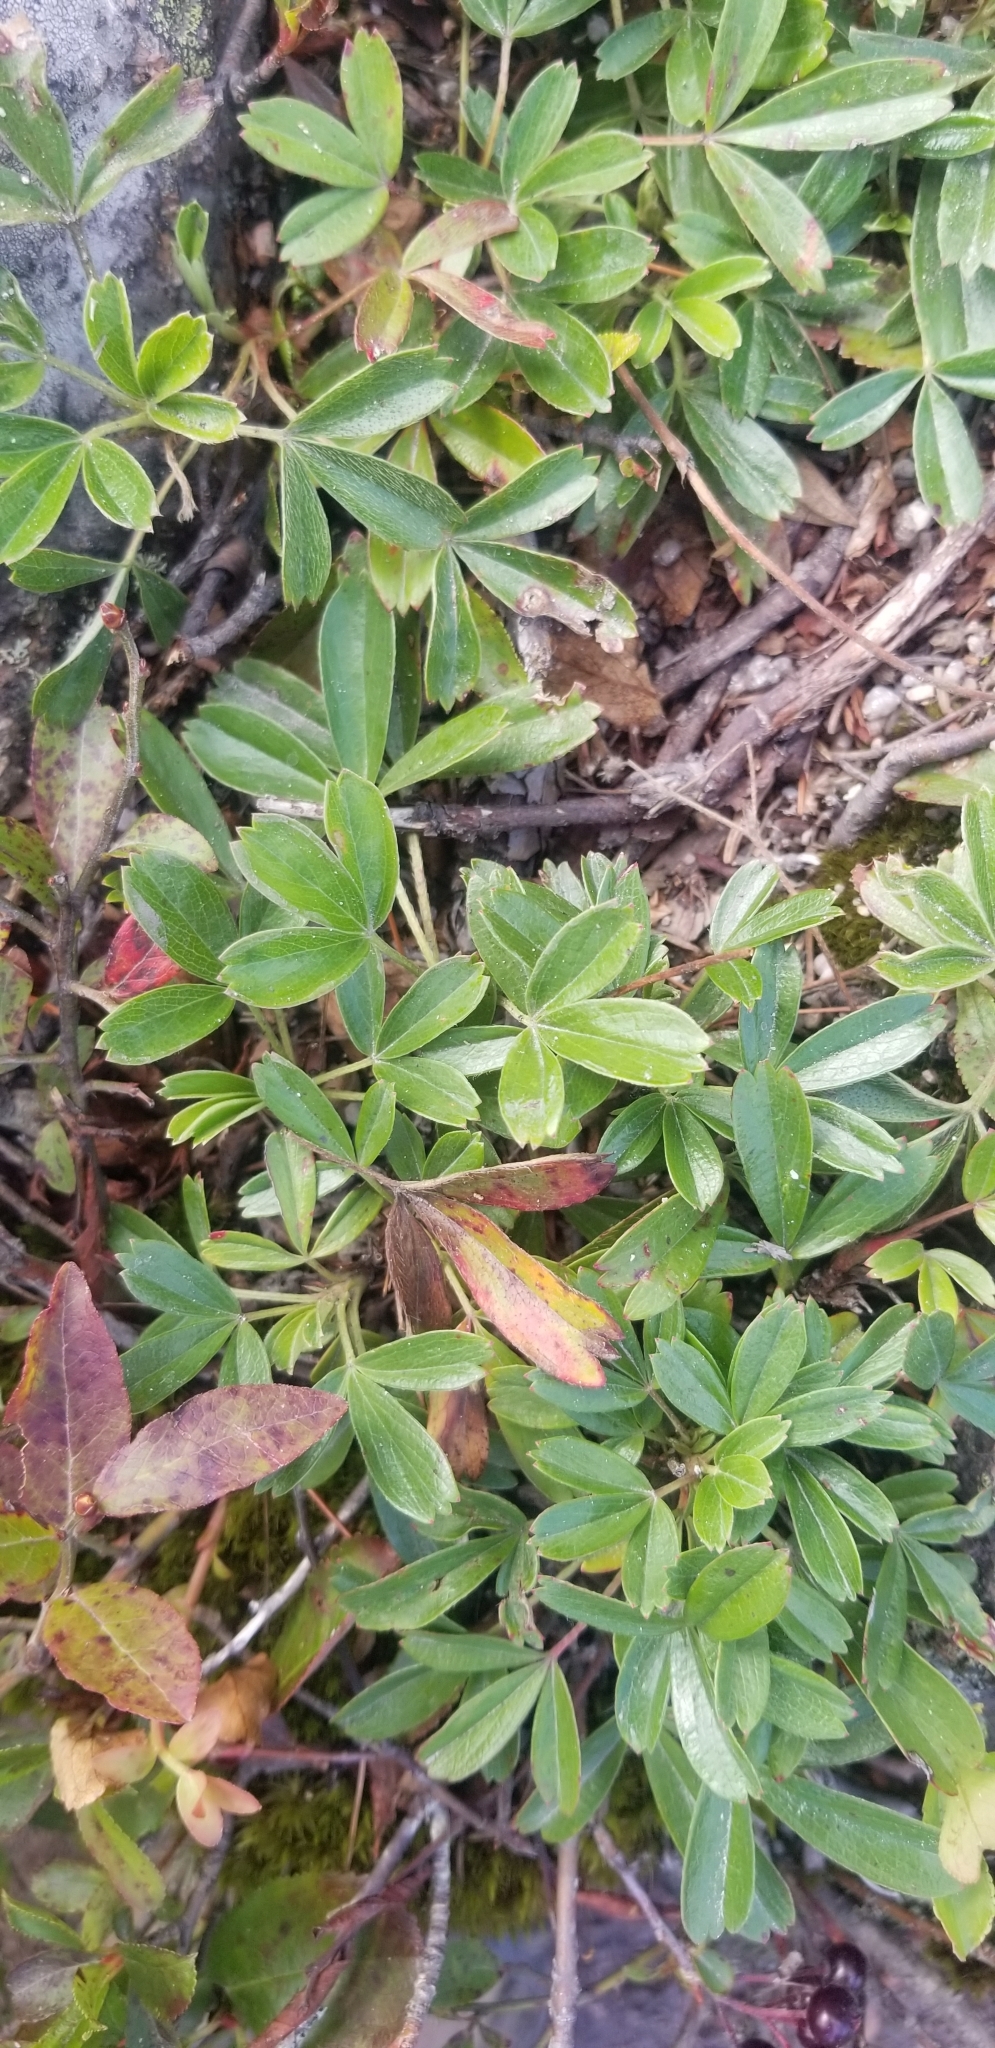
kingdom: Plantae
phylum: Tracheophyta
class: Magnoliopsida
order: Rosales
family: Rosaceae
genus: Sibbaldia
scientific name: Sibbaldia tridentata
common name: Three-toothed cinquefoil
